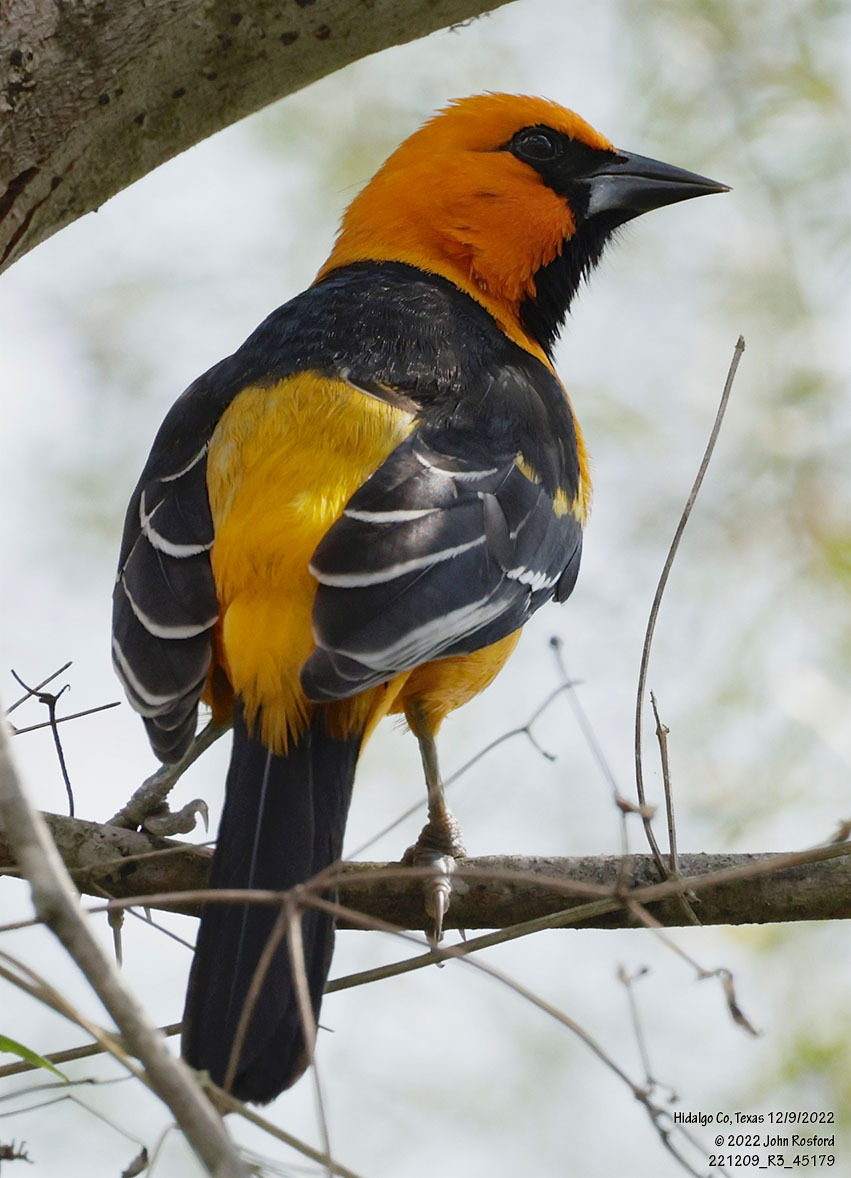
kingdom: Animalia
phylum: Chordata
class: Aves
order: Passeriformes
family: Icteridae
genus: Icterus
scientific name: Icterus gularis
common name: Altamira oriole
